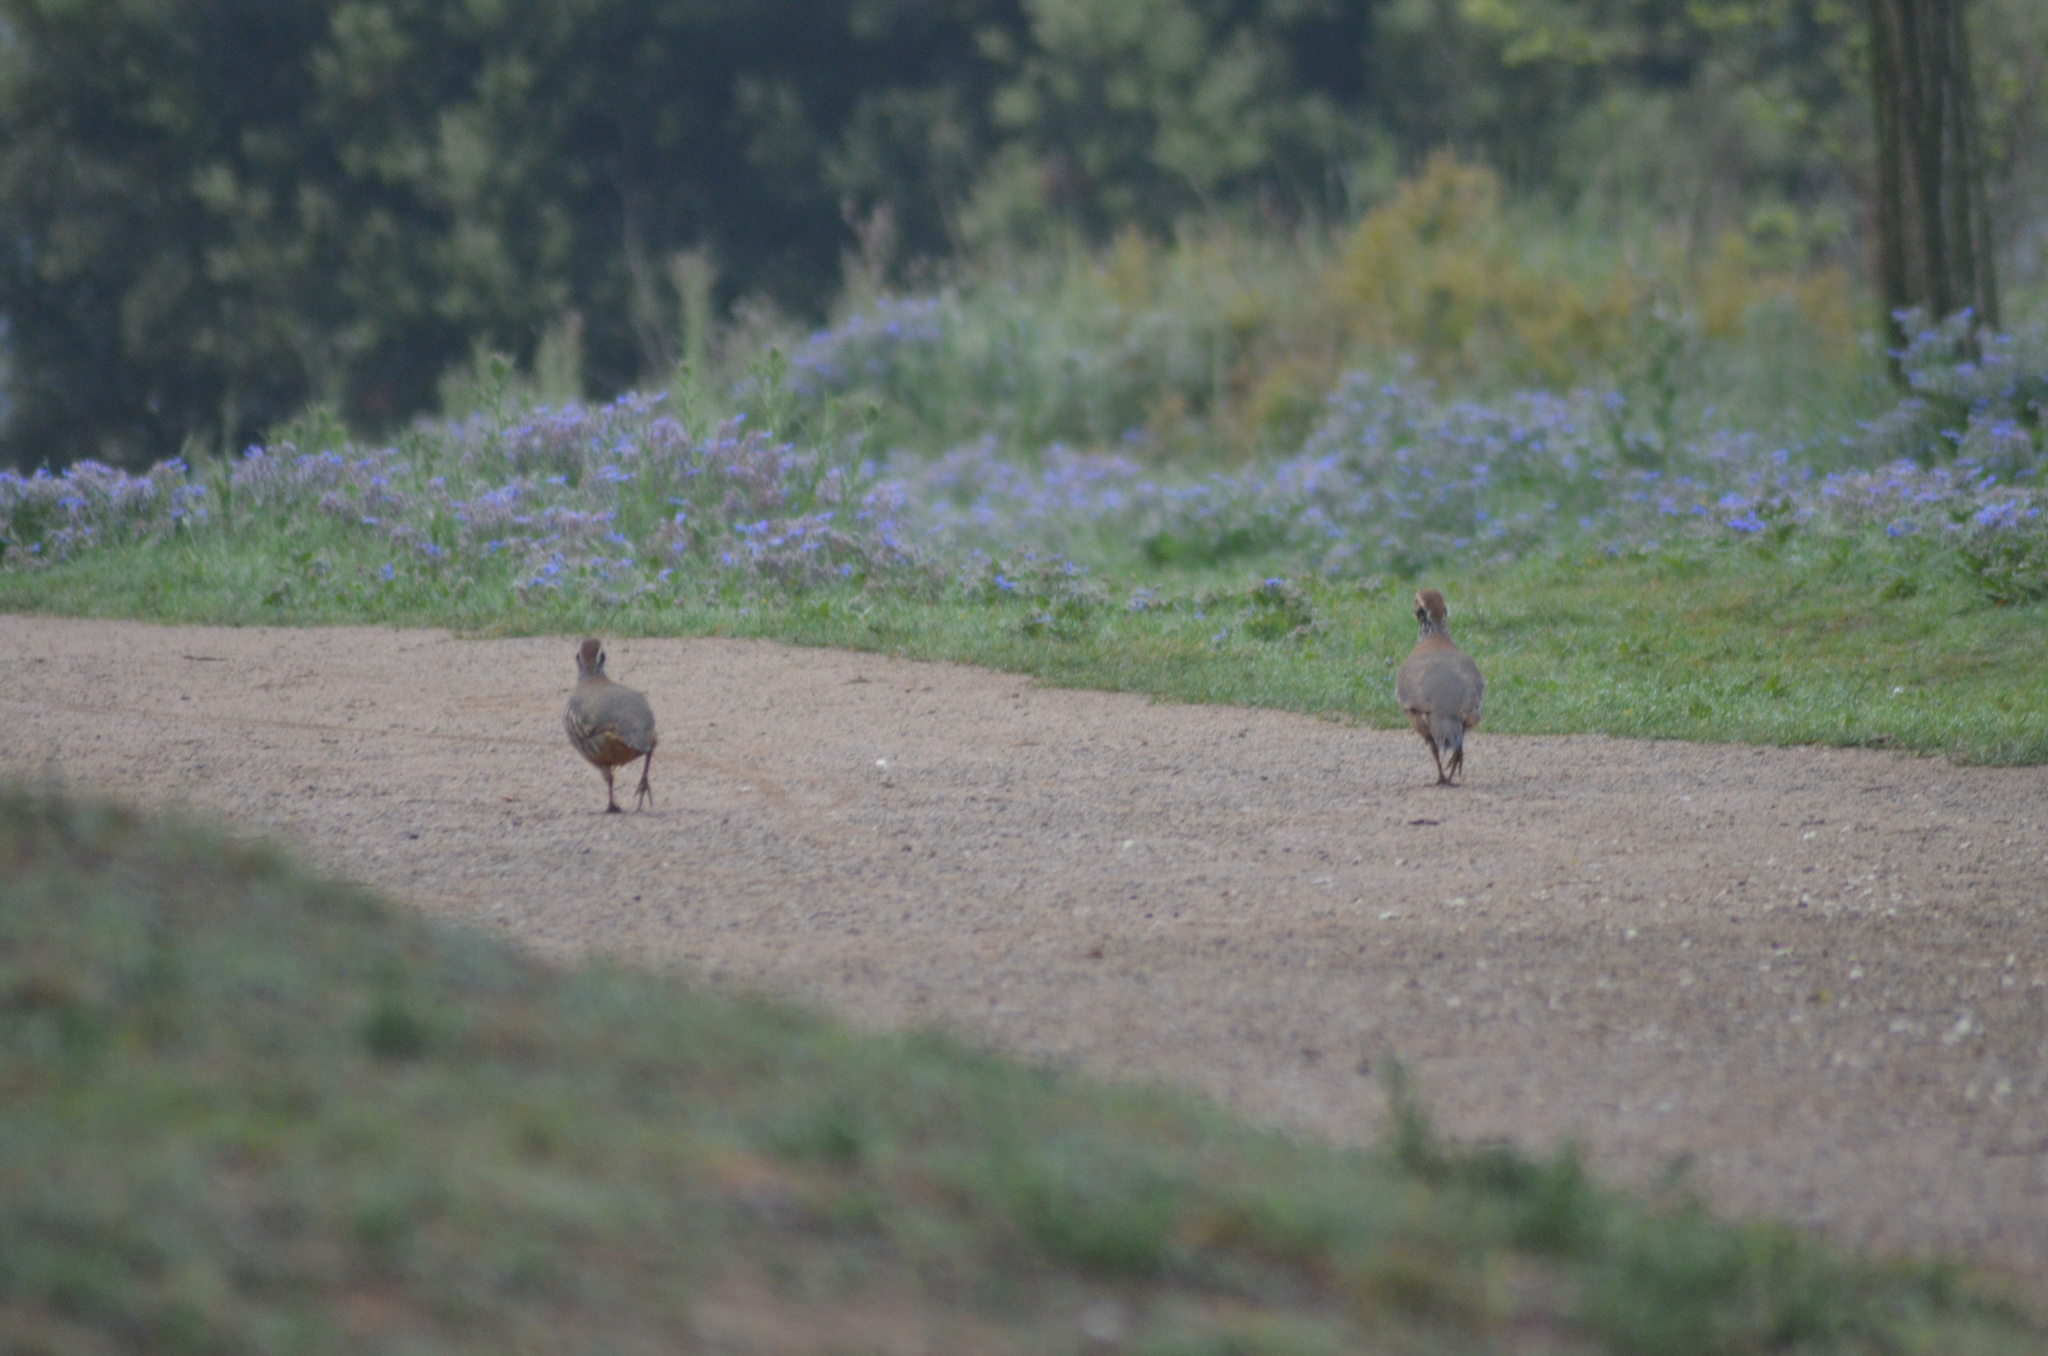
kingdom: Animalia
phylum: Chordata
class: Aves
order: Galliformes
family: Phasianidae
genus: Alectoris
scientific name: Alectoris rufa
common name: Red-legged partridge
